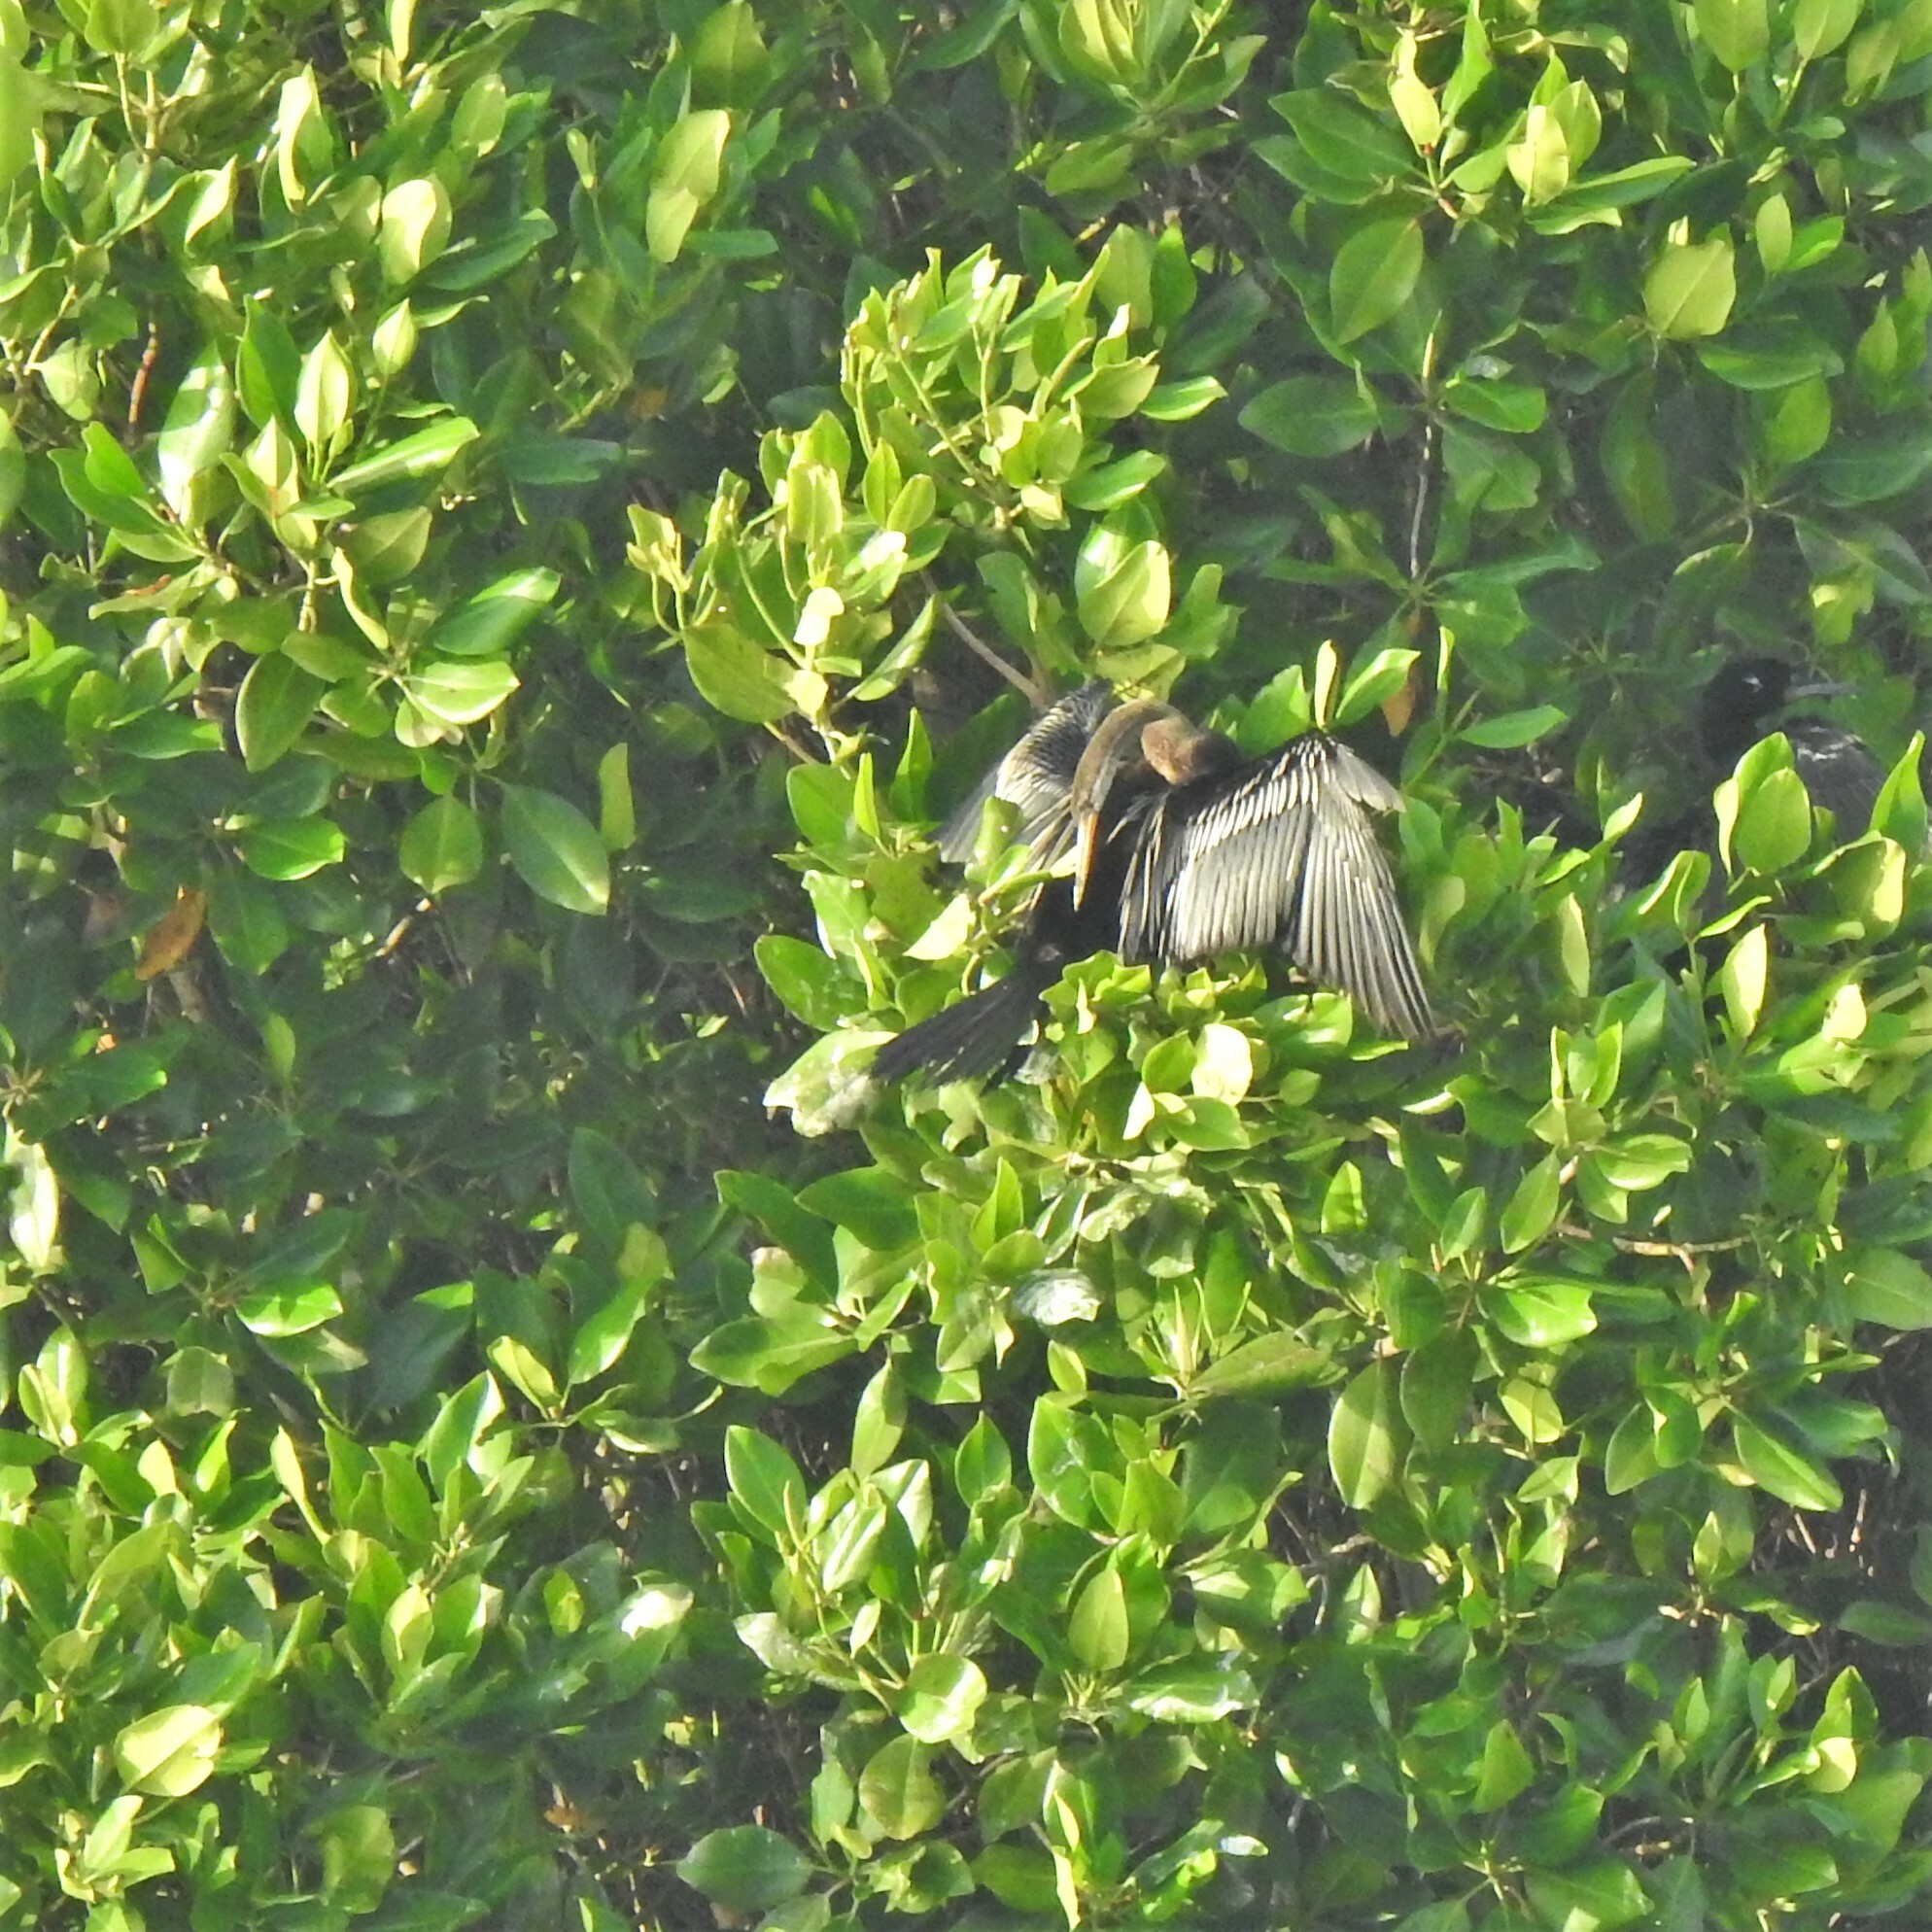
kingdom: Animalia
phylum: Chordata
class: Aves
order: Suliformes
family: Anhingidae
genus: Anhinga
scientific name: Anhinga melanogaster
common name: Oriental darter
